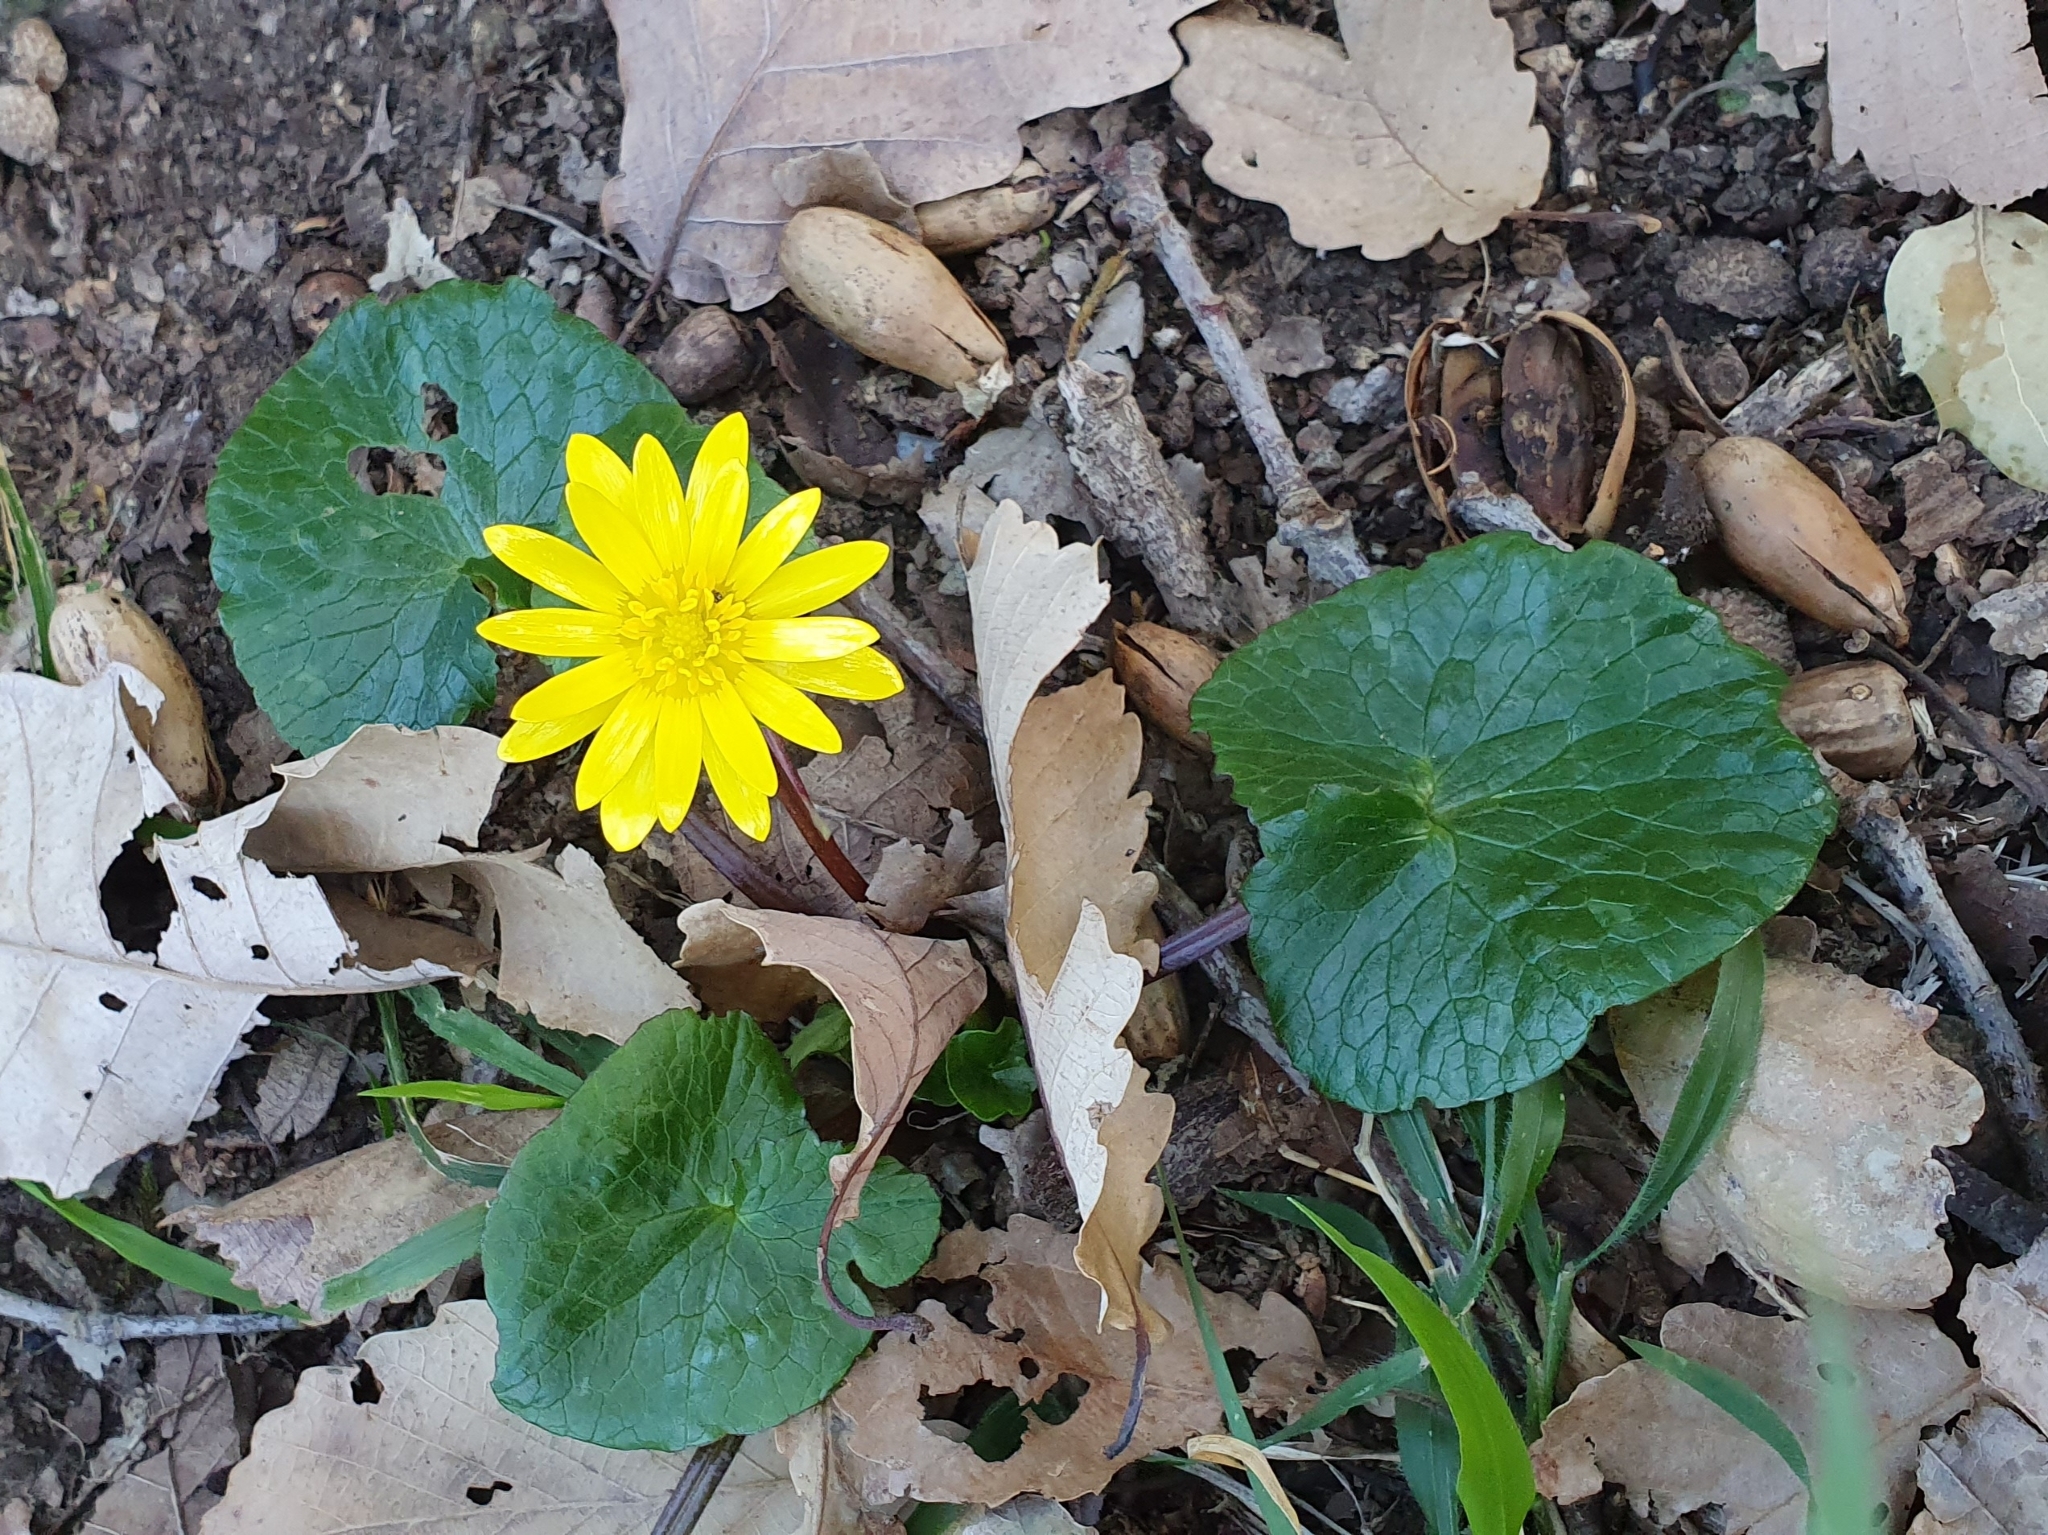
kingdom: Plantae
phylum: Tracheophyta
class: Magnoliopsida
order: Ranunculales
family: Ranunculaceae
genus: Ficaria
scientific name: Ficaria verna
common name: Lesser celandine
